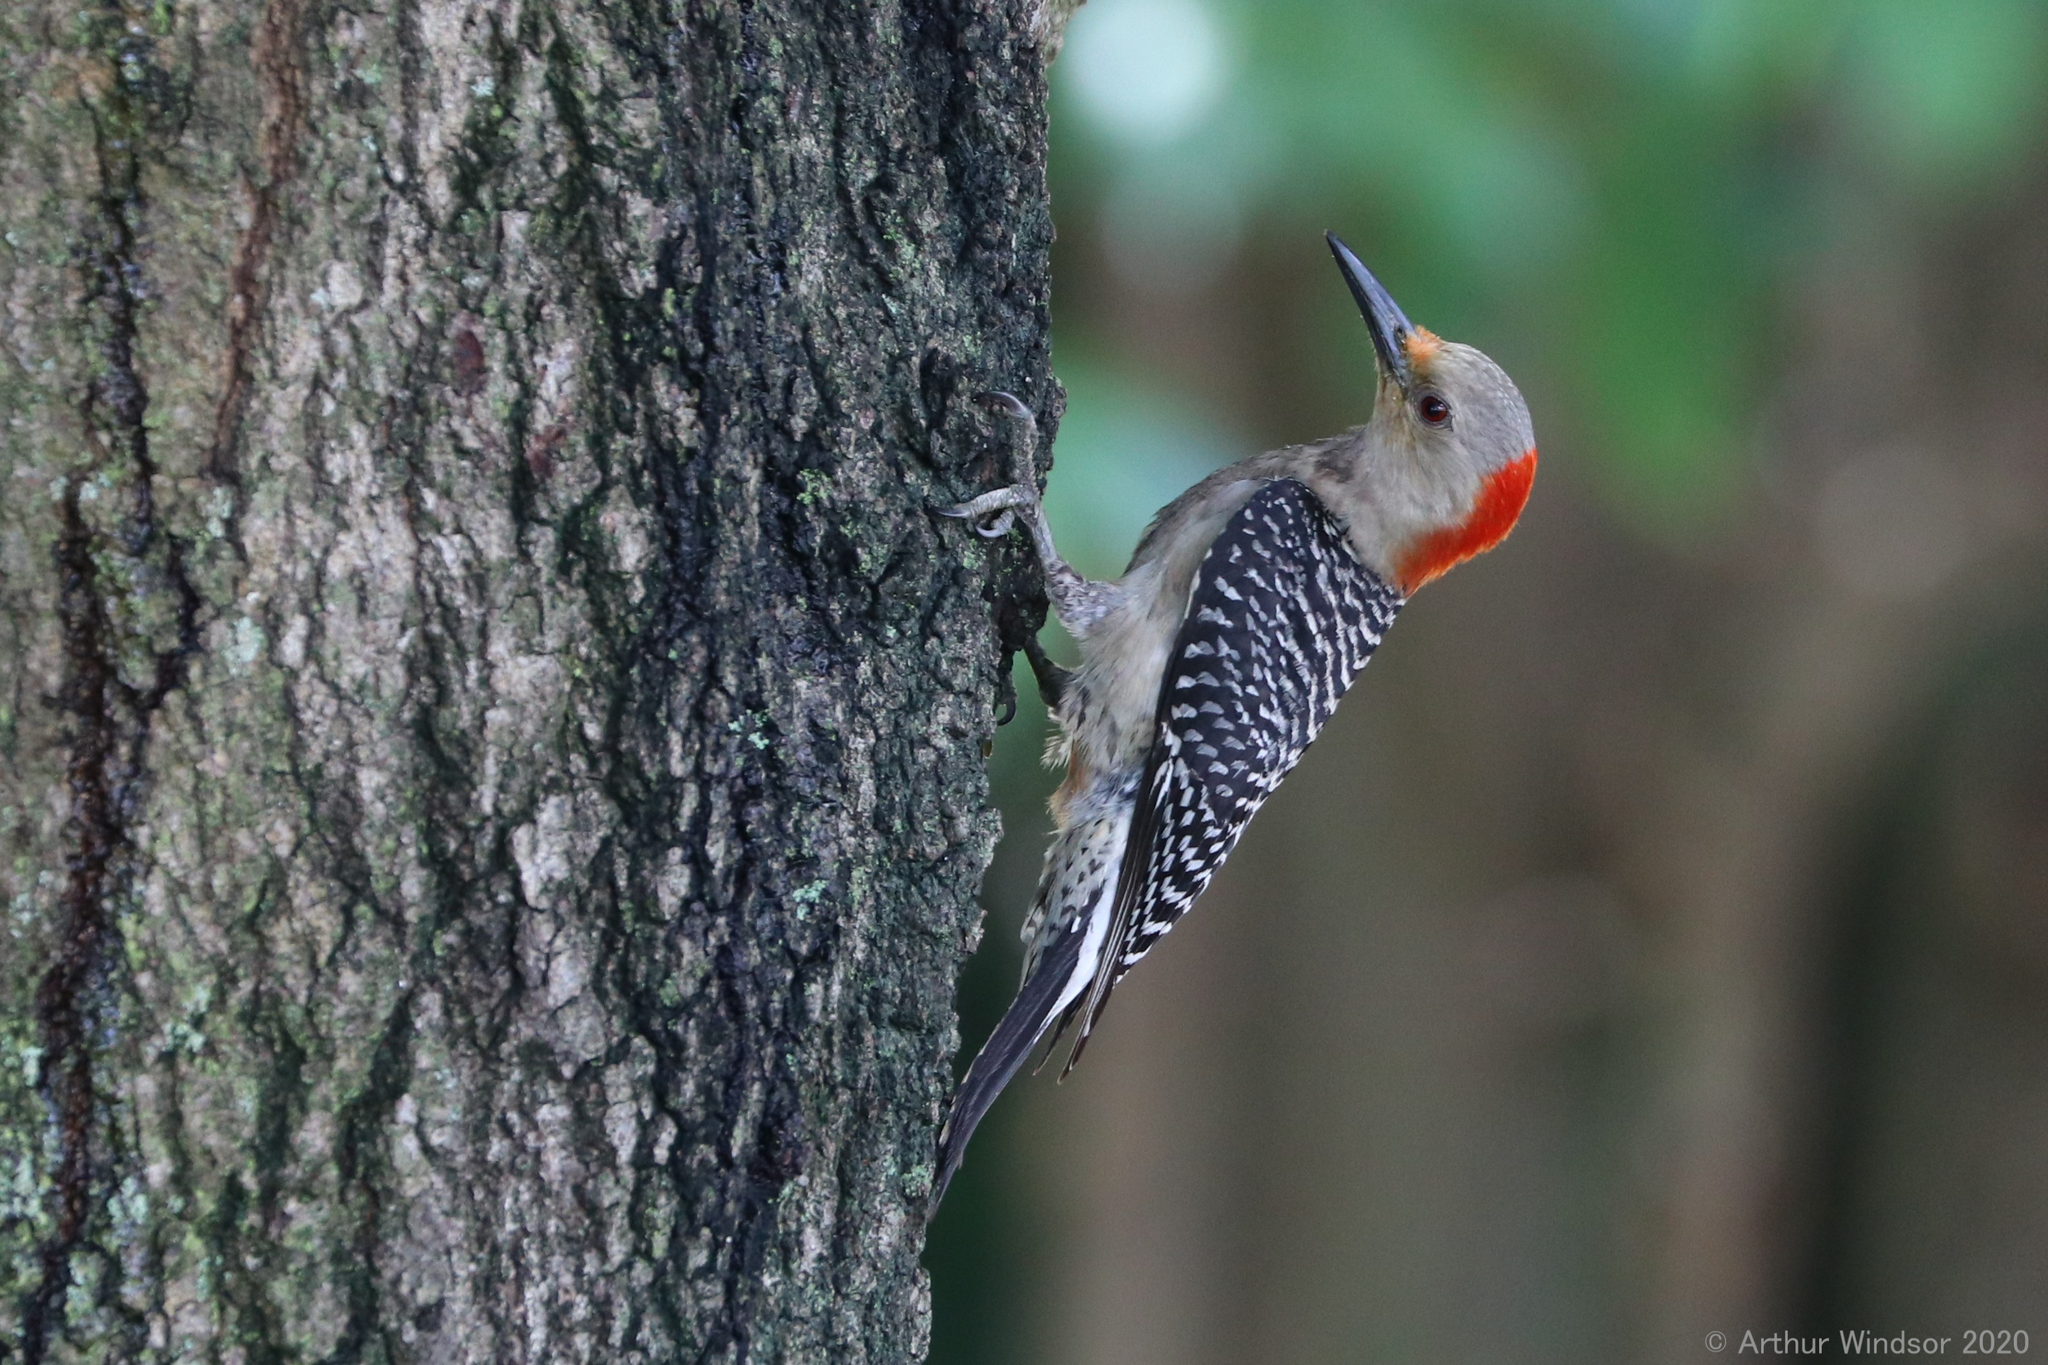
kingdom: Animalia
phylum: Chordata
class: Aves
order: Piciformes
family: Picidae
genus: Melanerpes
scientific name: Melanerpes carolinus
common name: Red-bellied woodpecker
